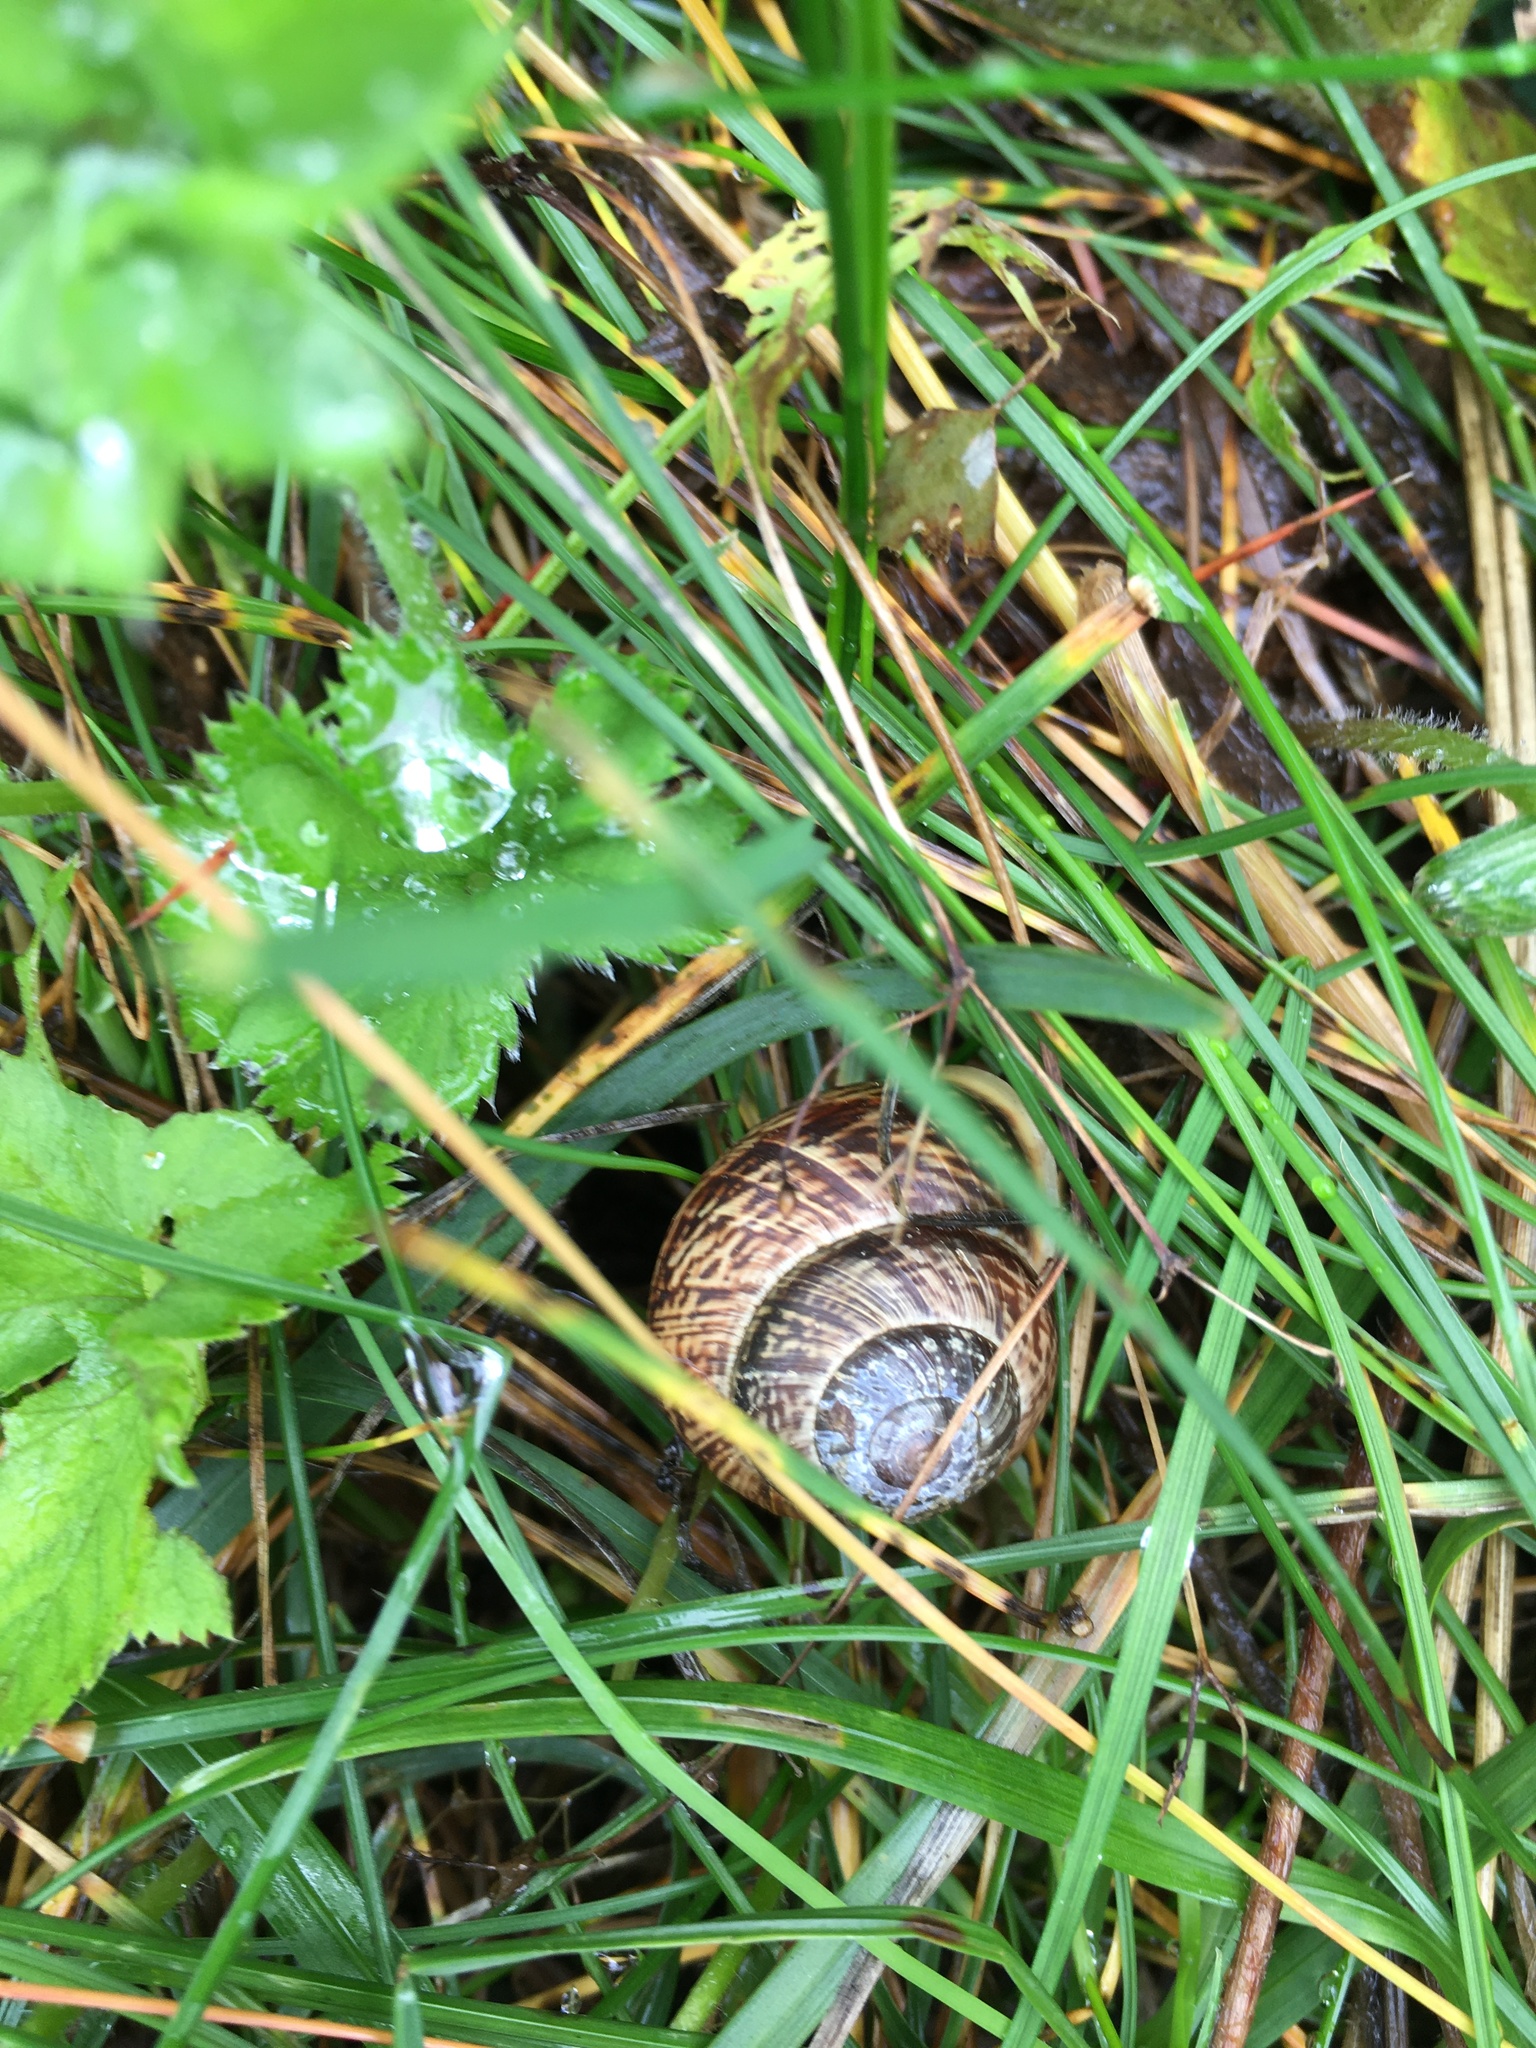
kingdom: Animalia
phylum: Mollusca
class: Gastropoda
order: Stylommatophora
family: Helicidae
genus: Arianta
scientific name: Arianta arbustorum
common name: Copse snail
